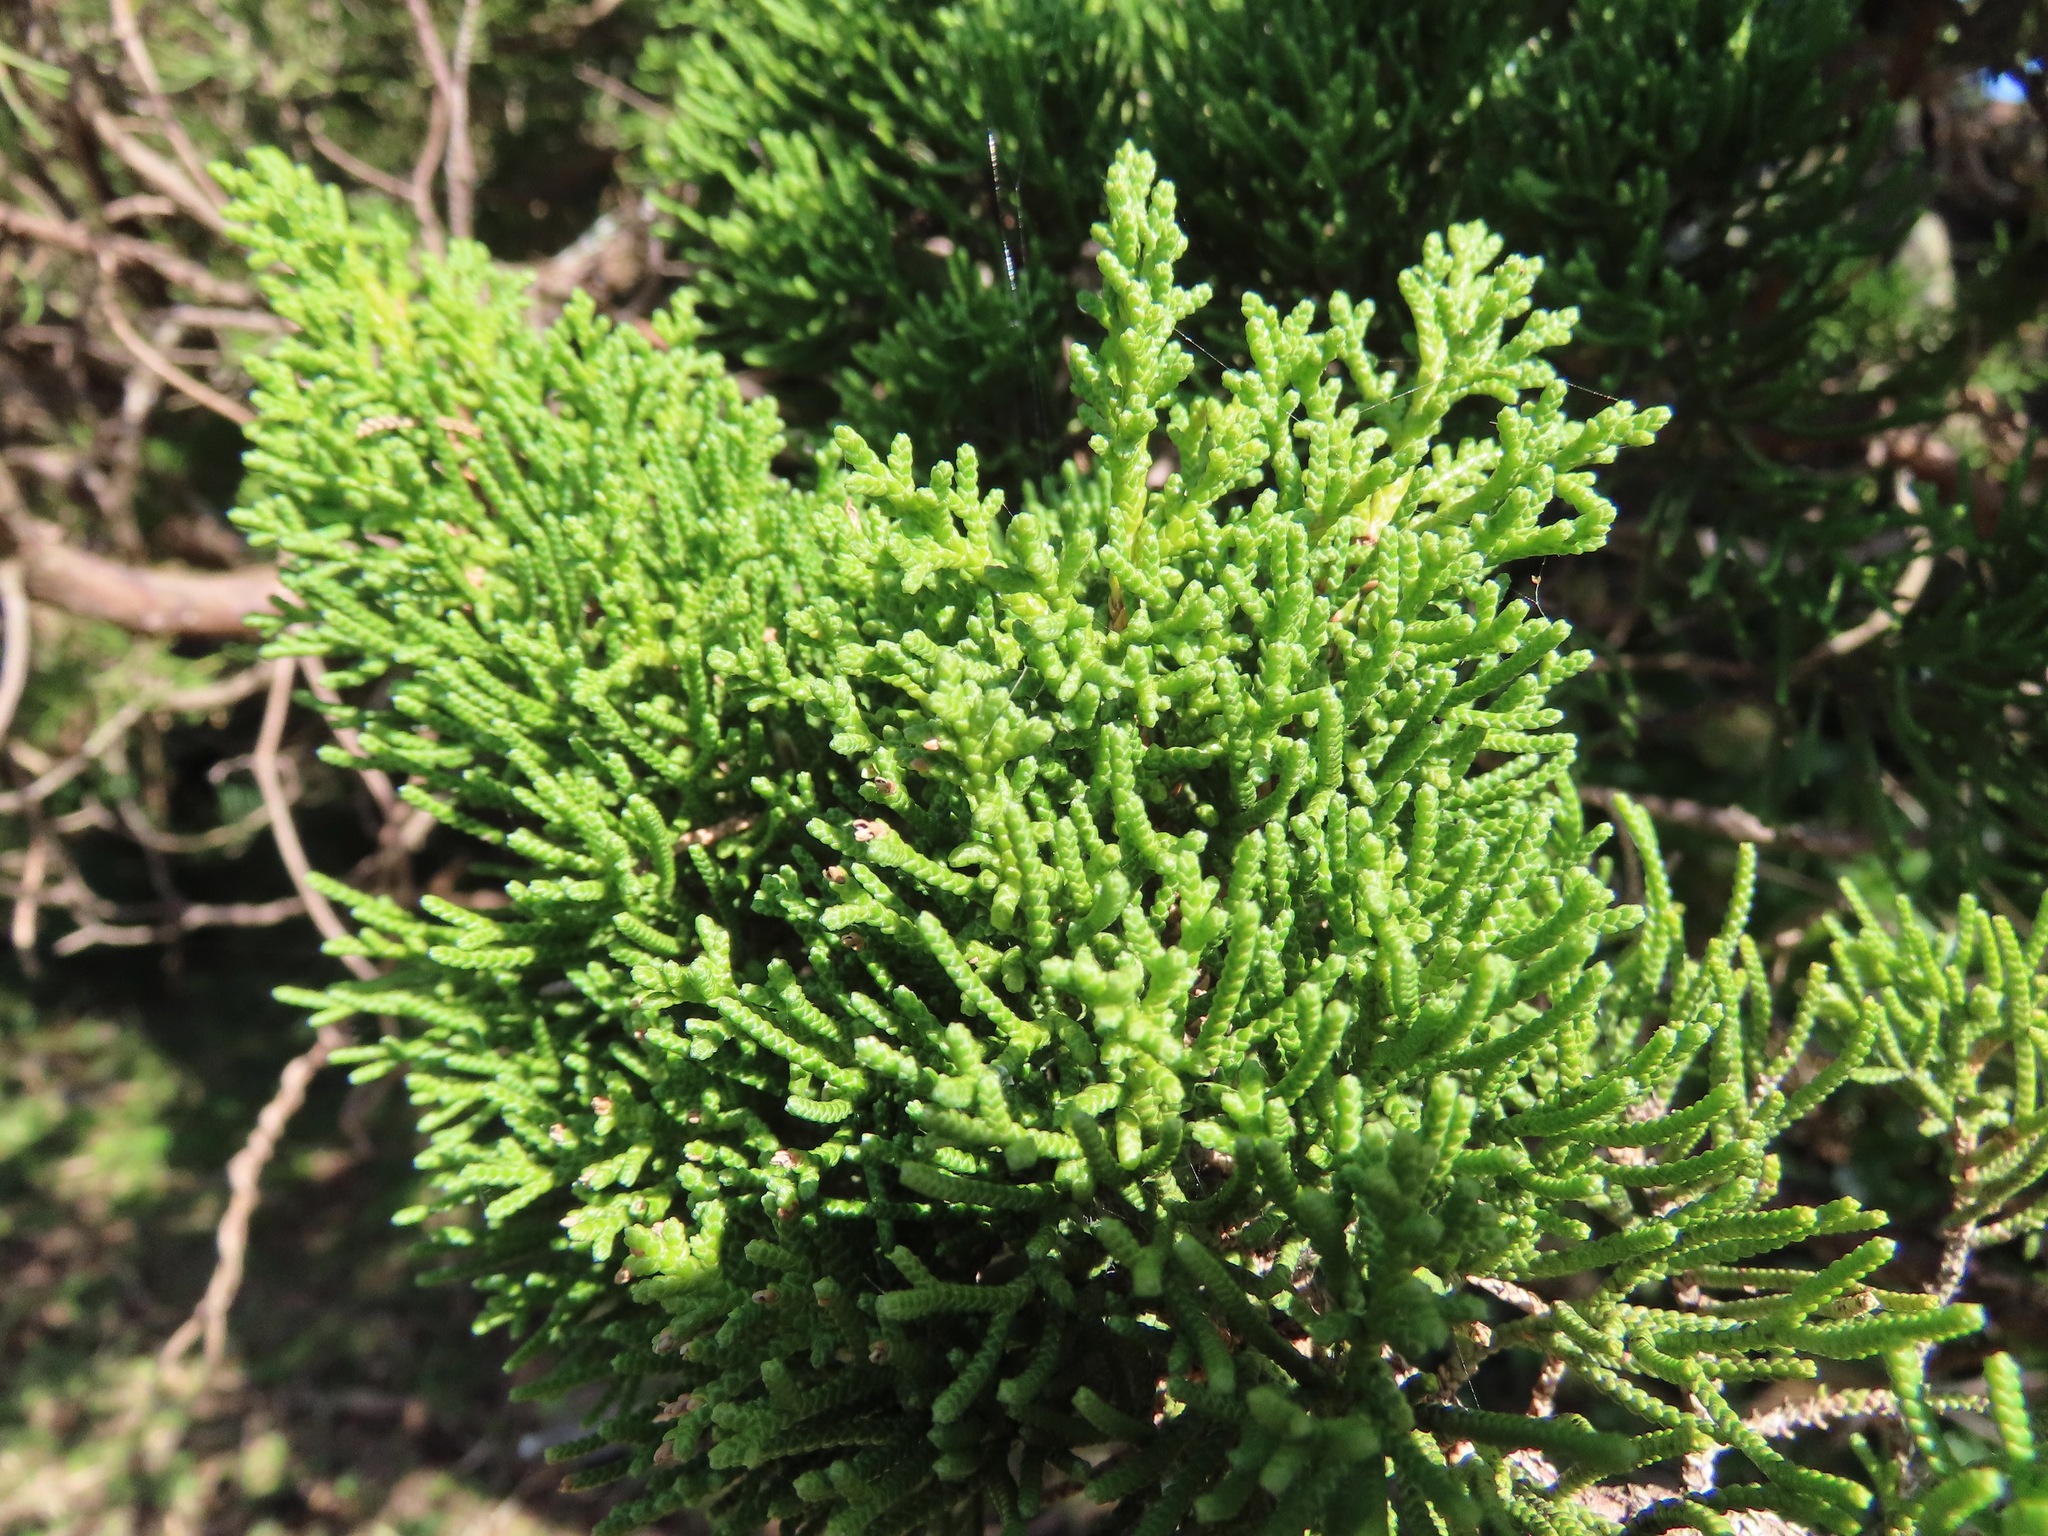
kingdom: Plantae
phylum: Tracheophyta
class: Pinopsida
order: Pinales
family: Cupressaceae
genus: Juniperus
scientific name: Juniperus chinensis
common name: Chinese juniper
